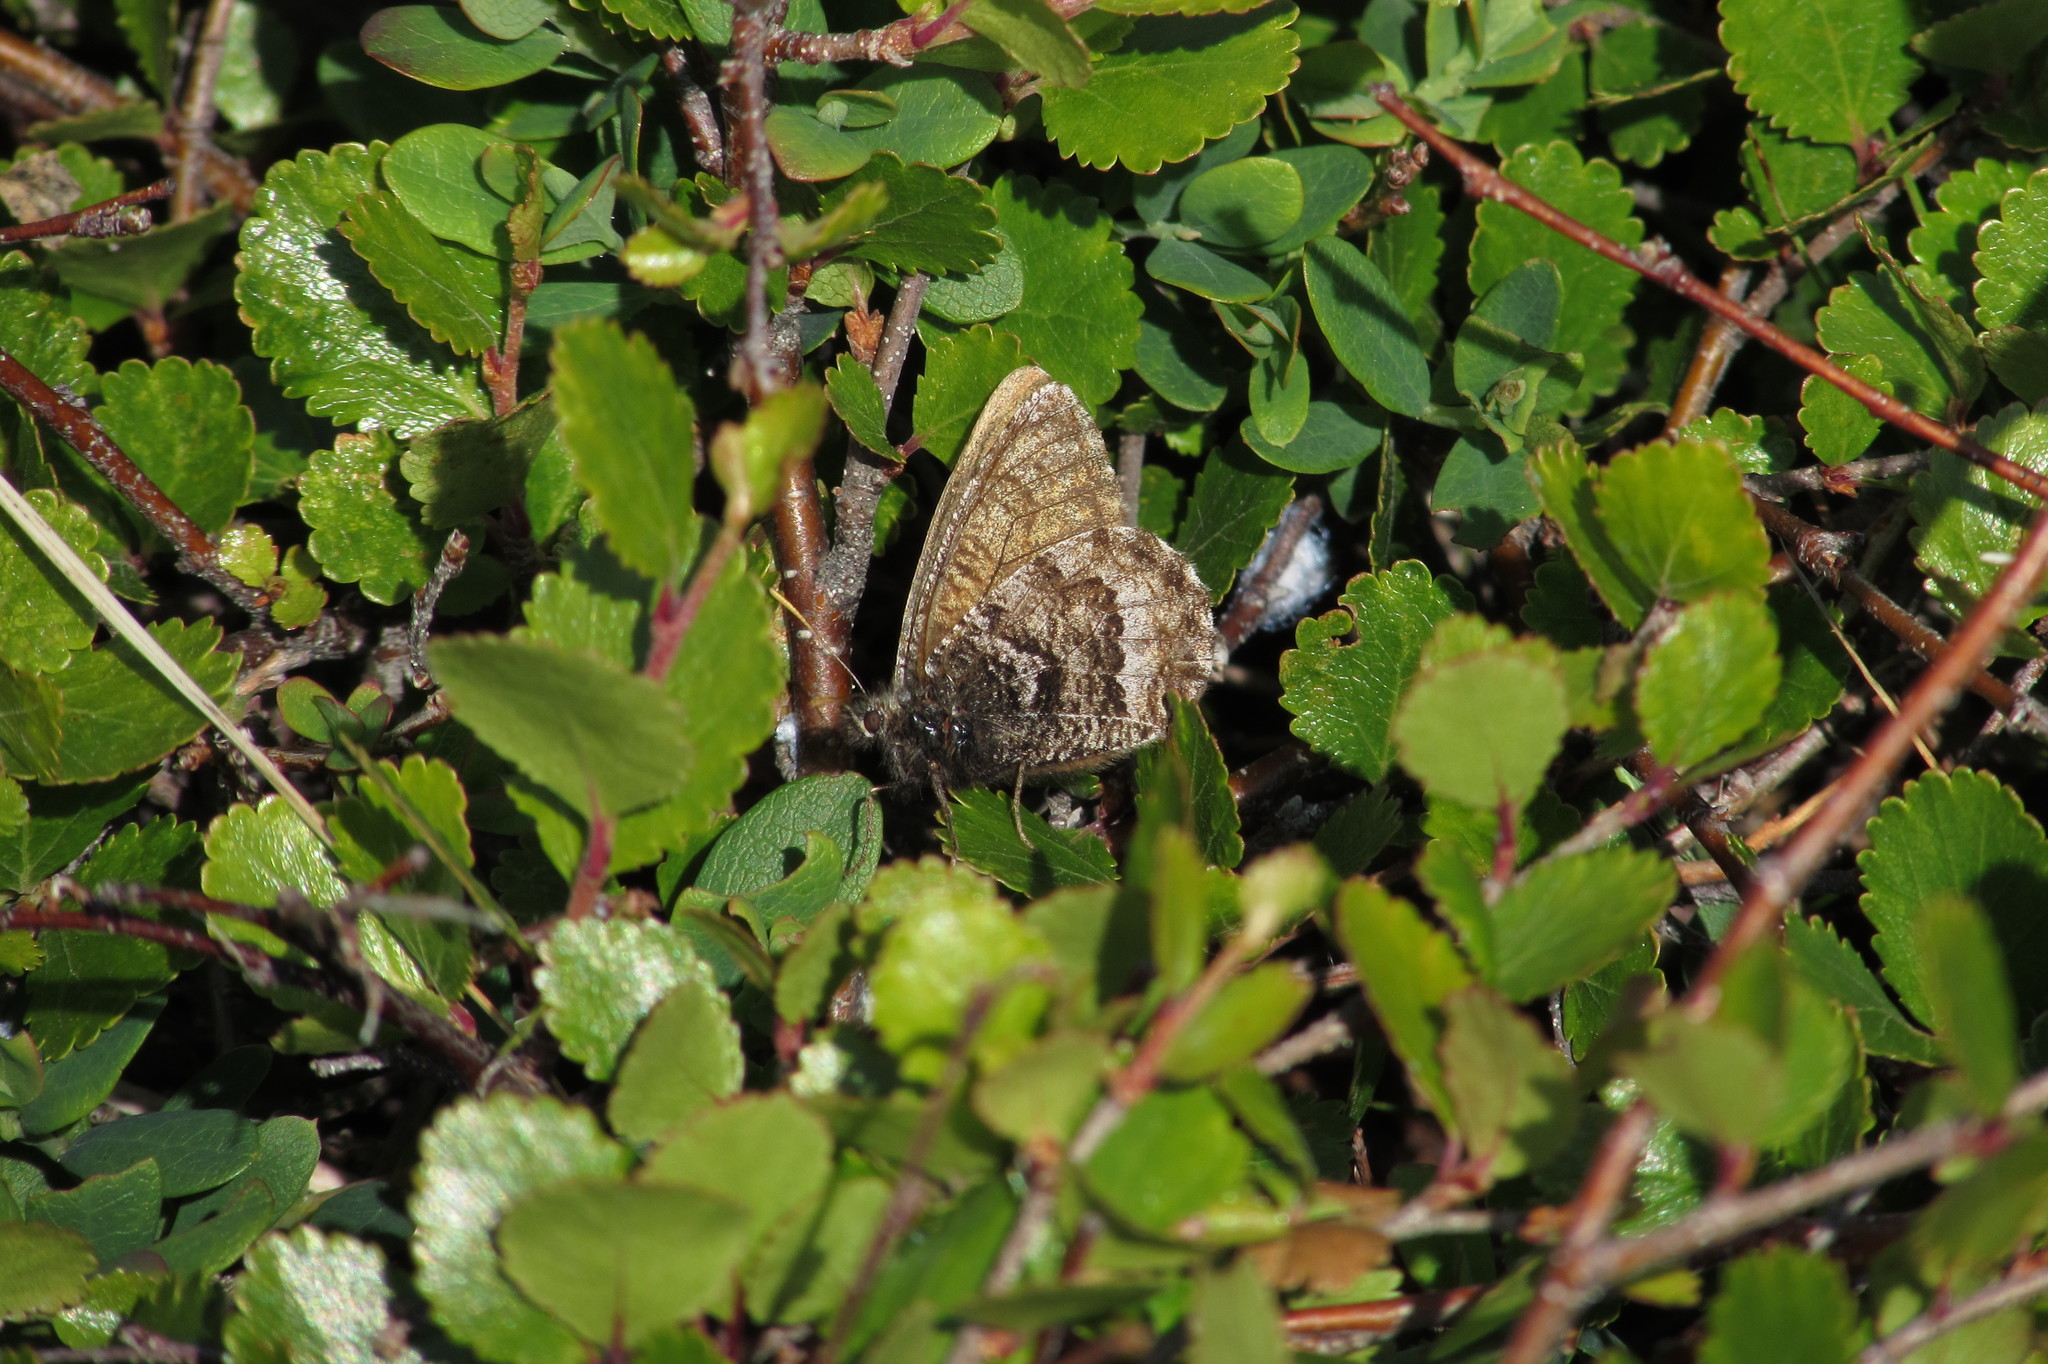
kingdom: Animalia
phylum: Arthropoda
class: Insecta
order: Lepidoptera
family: Nymphalidae
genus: Oeneis
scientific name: Oeneis bore
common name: Arctic grayling
